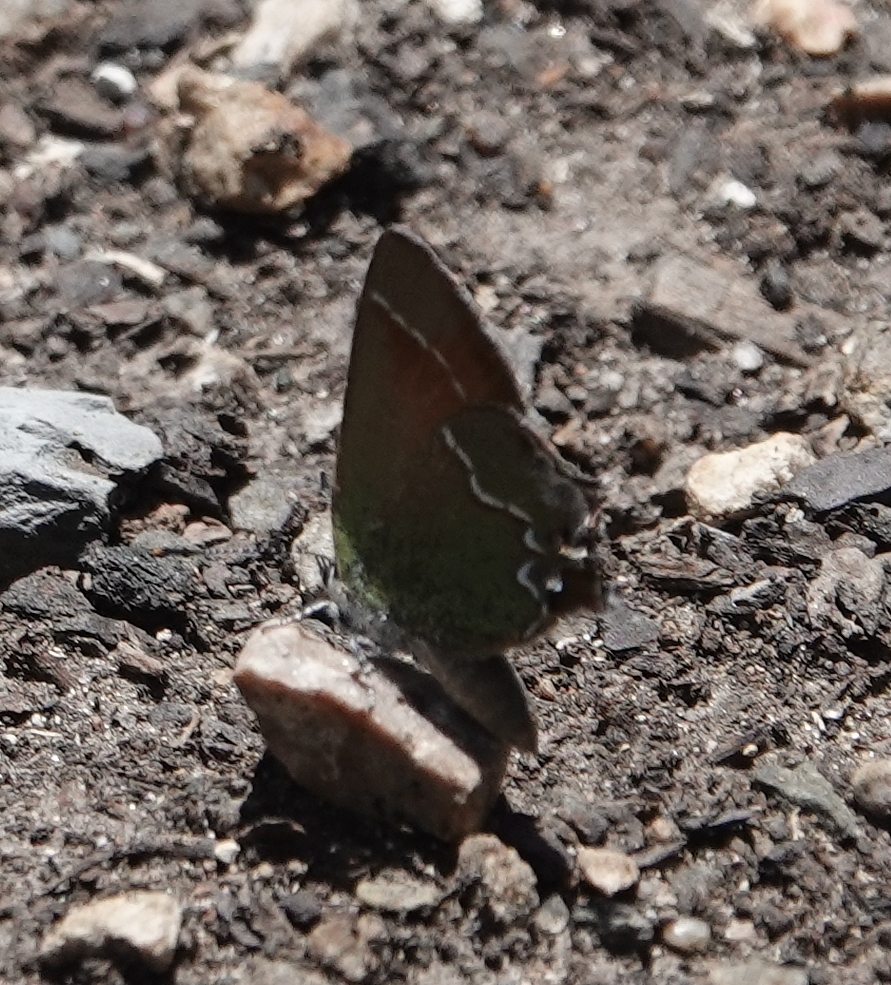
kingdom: Animalia
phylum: Arthropoda
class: Insecta
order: Lepidoptera
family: Lycaenidae
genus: Mitoura
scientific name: Mitoura gryneus
